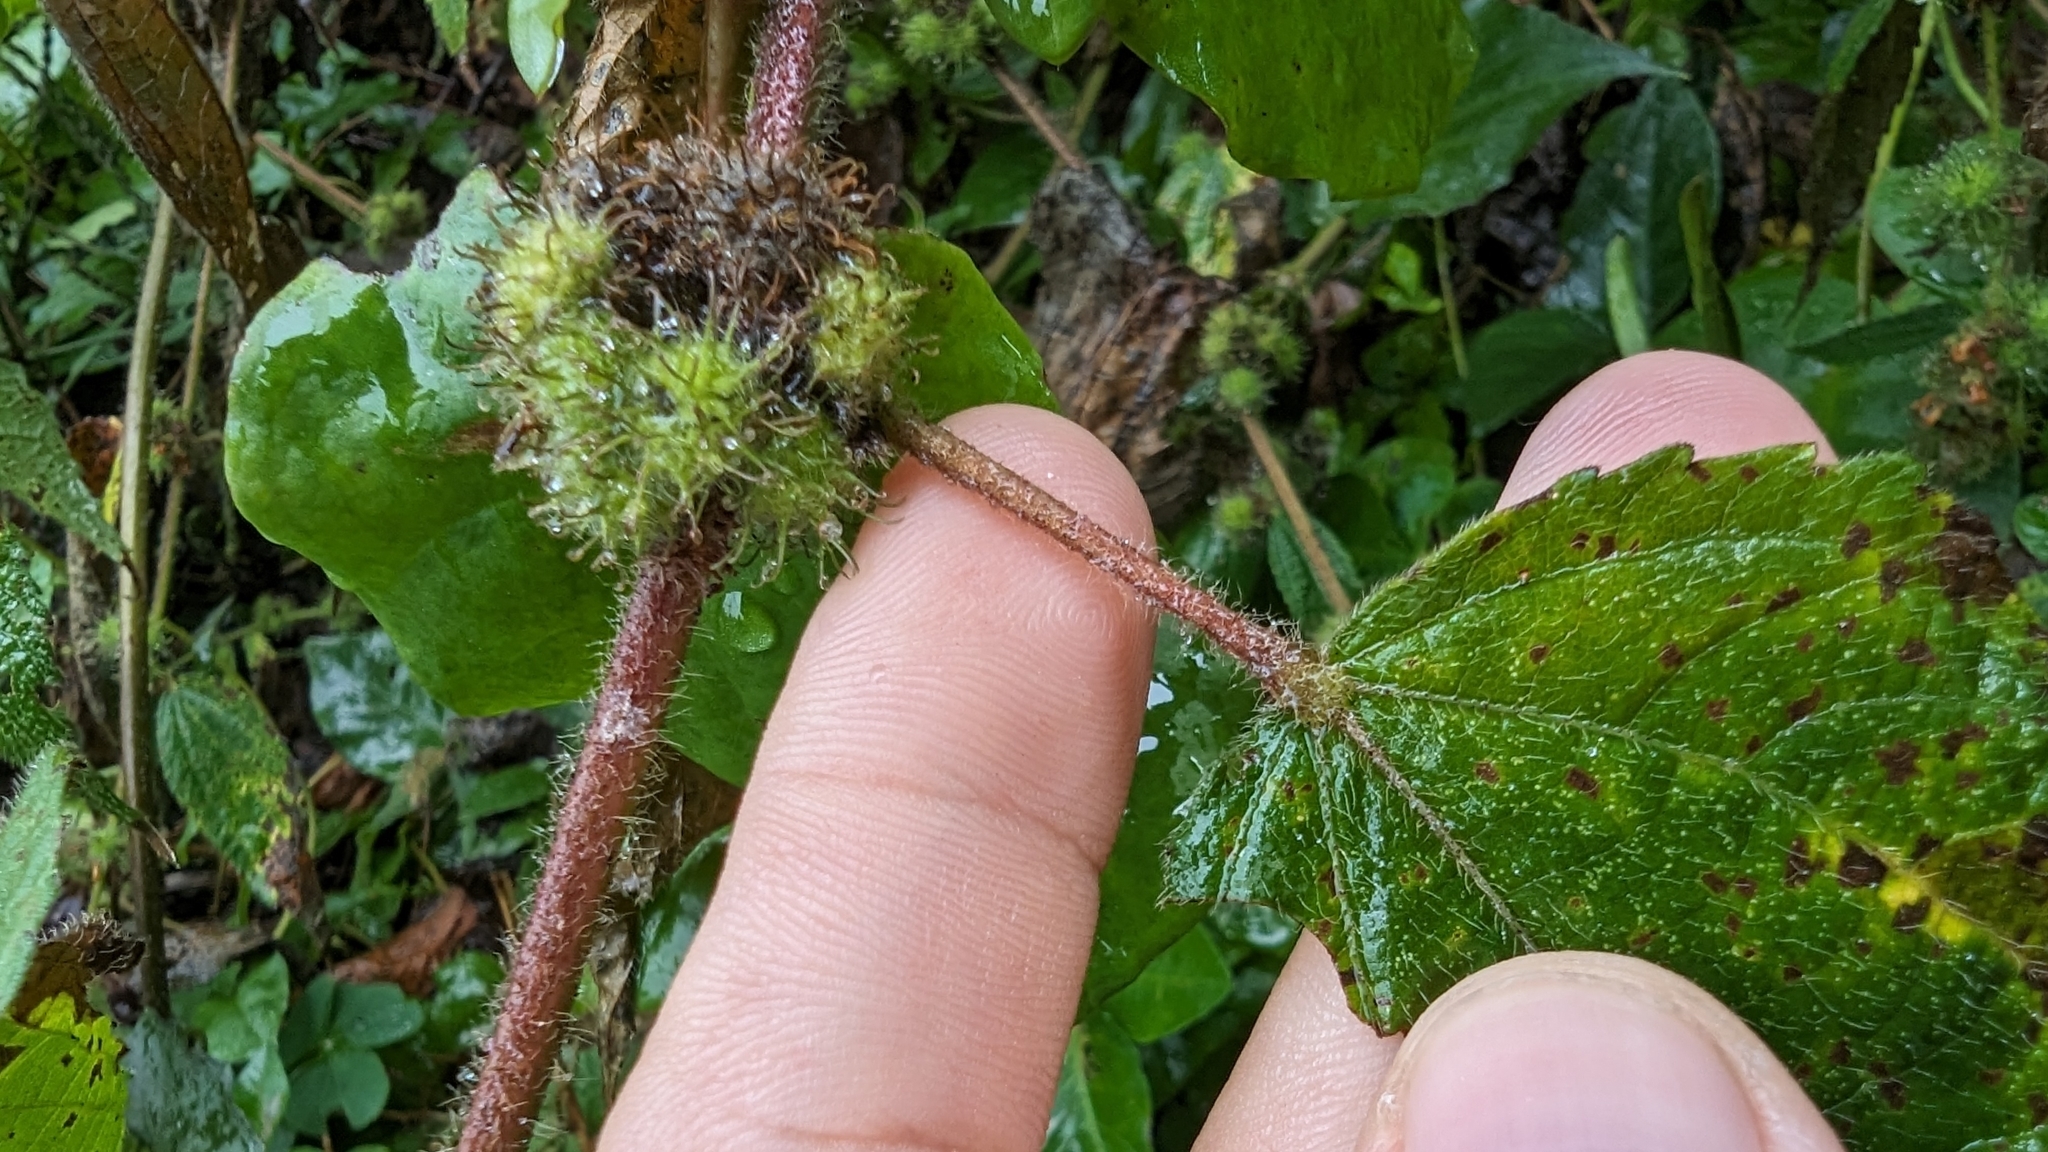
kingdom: Plantae
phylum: Tracheophyta
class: Magnoliopsida
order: Malvales
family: Malvaceae
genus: Triumfetta
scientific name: Triumfetta pilosa
